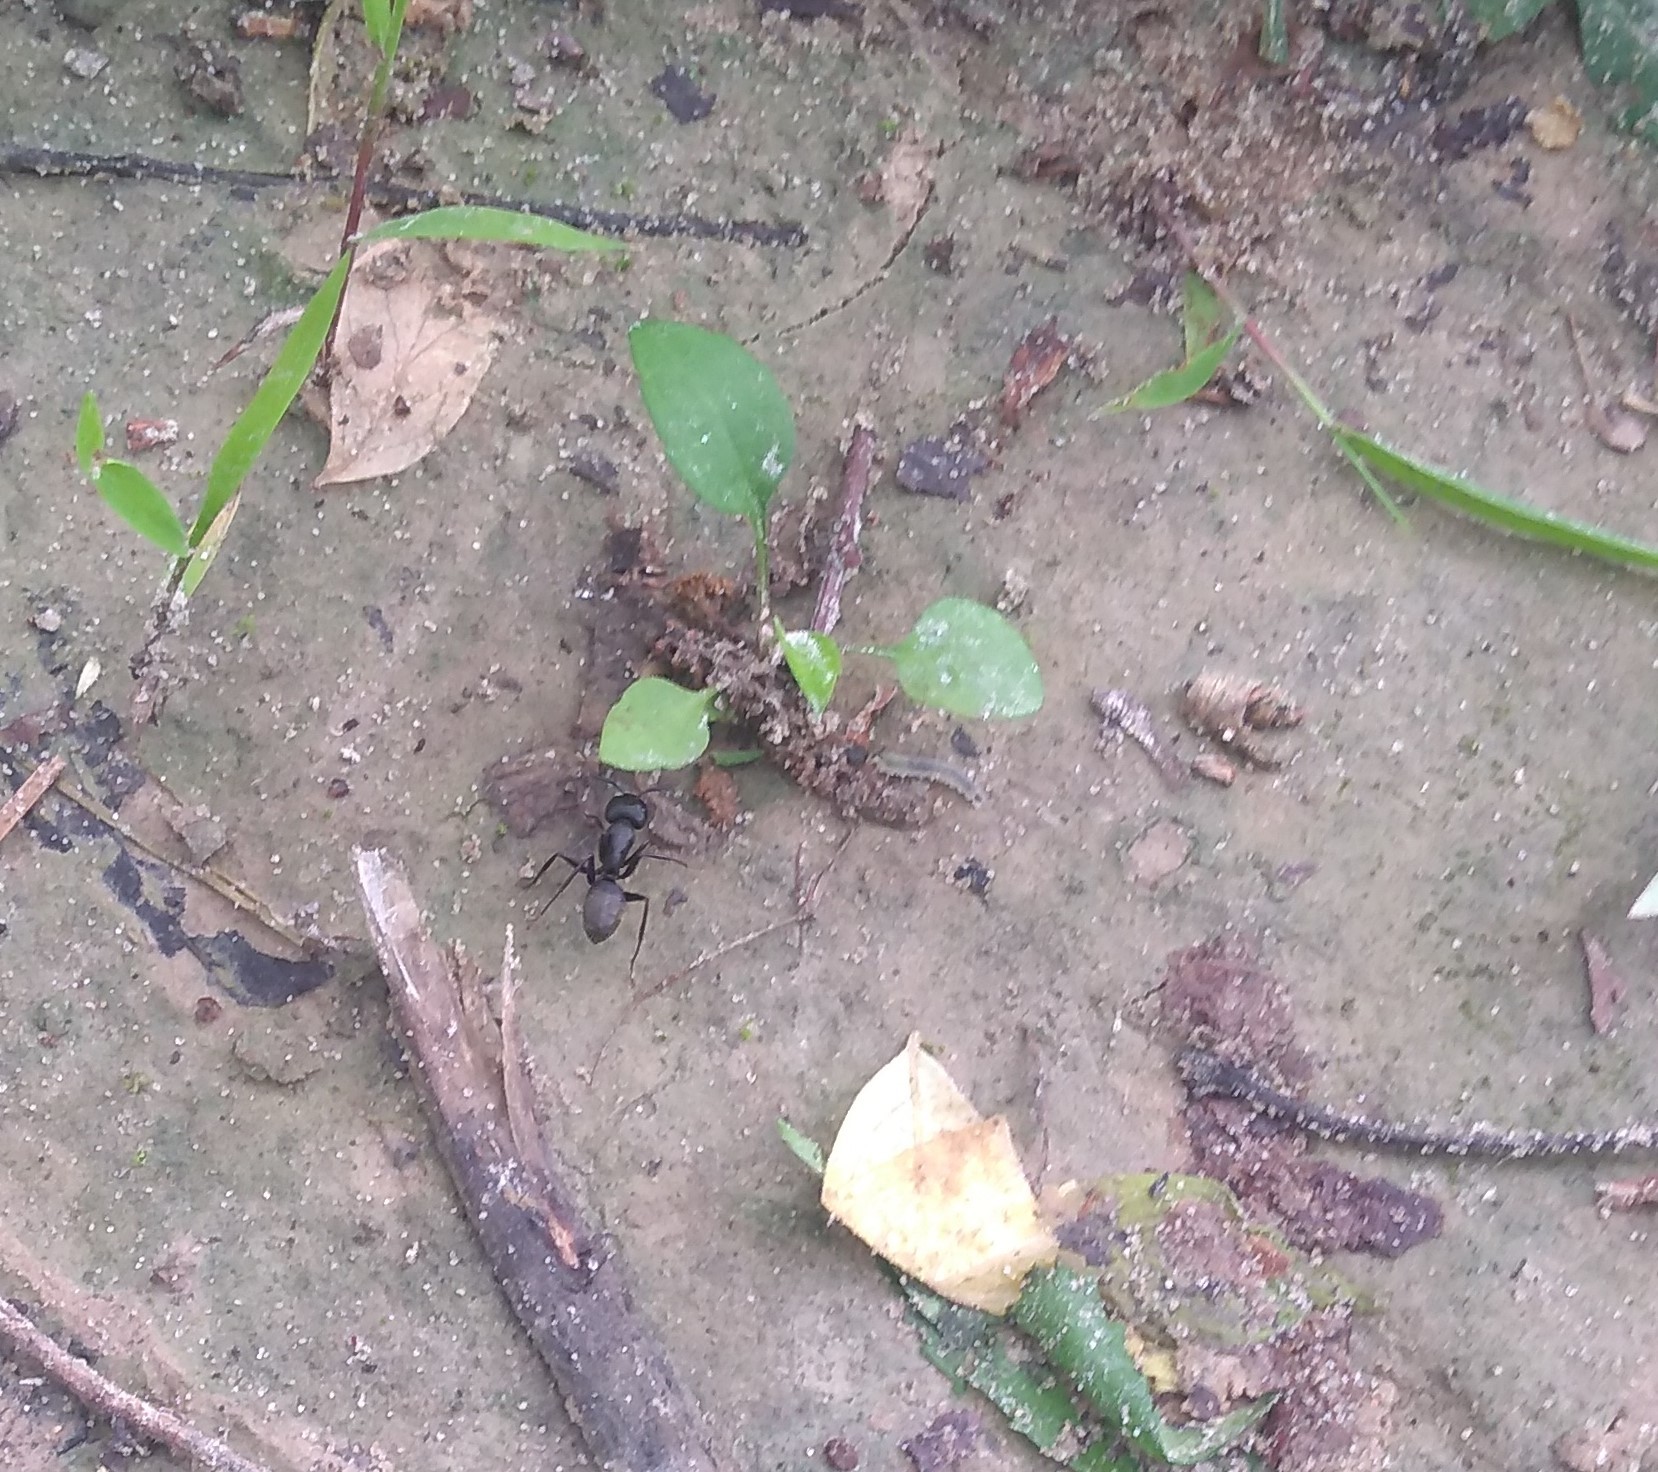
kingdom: Animalia
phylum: Arthropoda
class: Insecta
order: Hymenoptera
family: Formicidae
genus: Camponotus
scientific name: Camponotus pennsylvanicus
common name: Black carpenter ant
